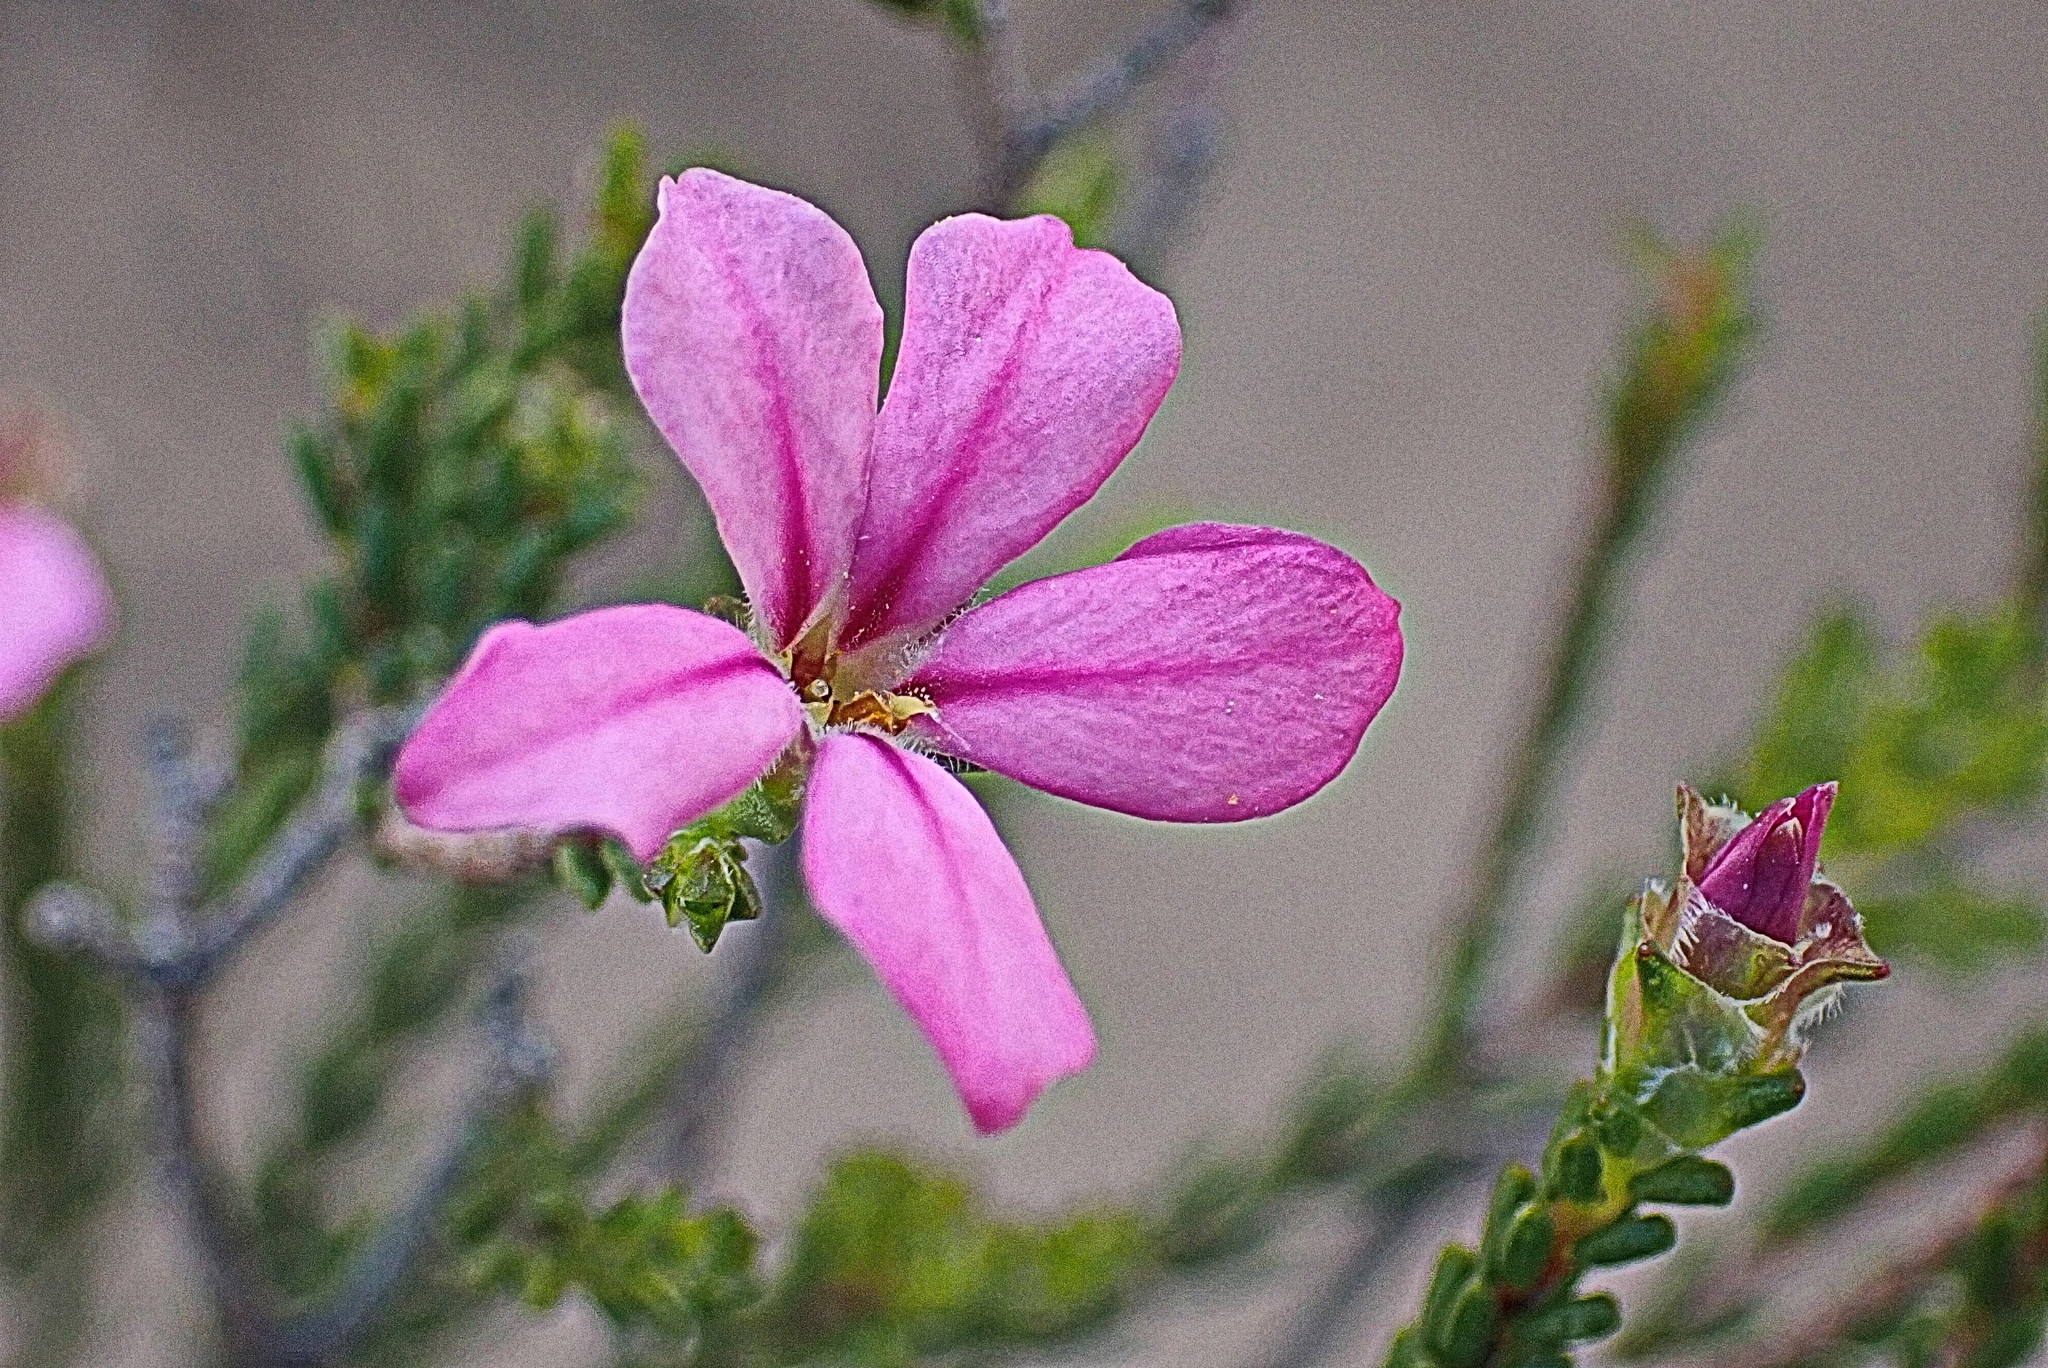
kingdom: Plantae
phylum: Tracheophyta
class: Magnoliopsida
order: Sapindales
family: Rutaceae
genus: Acmadenia
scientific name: Acmadenia sheilae
